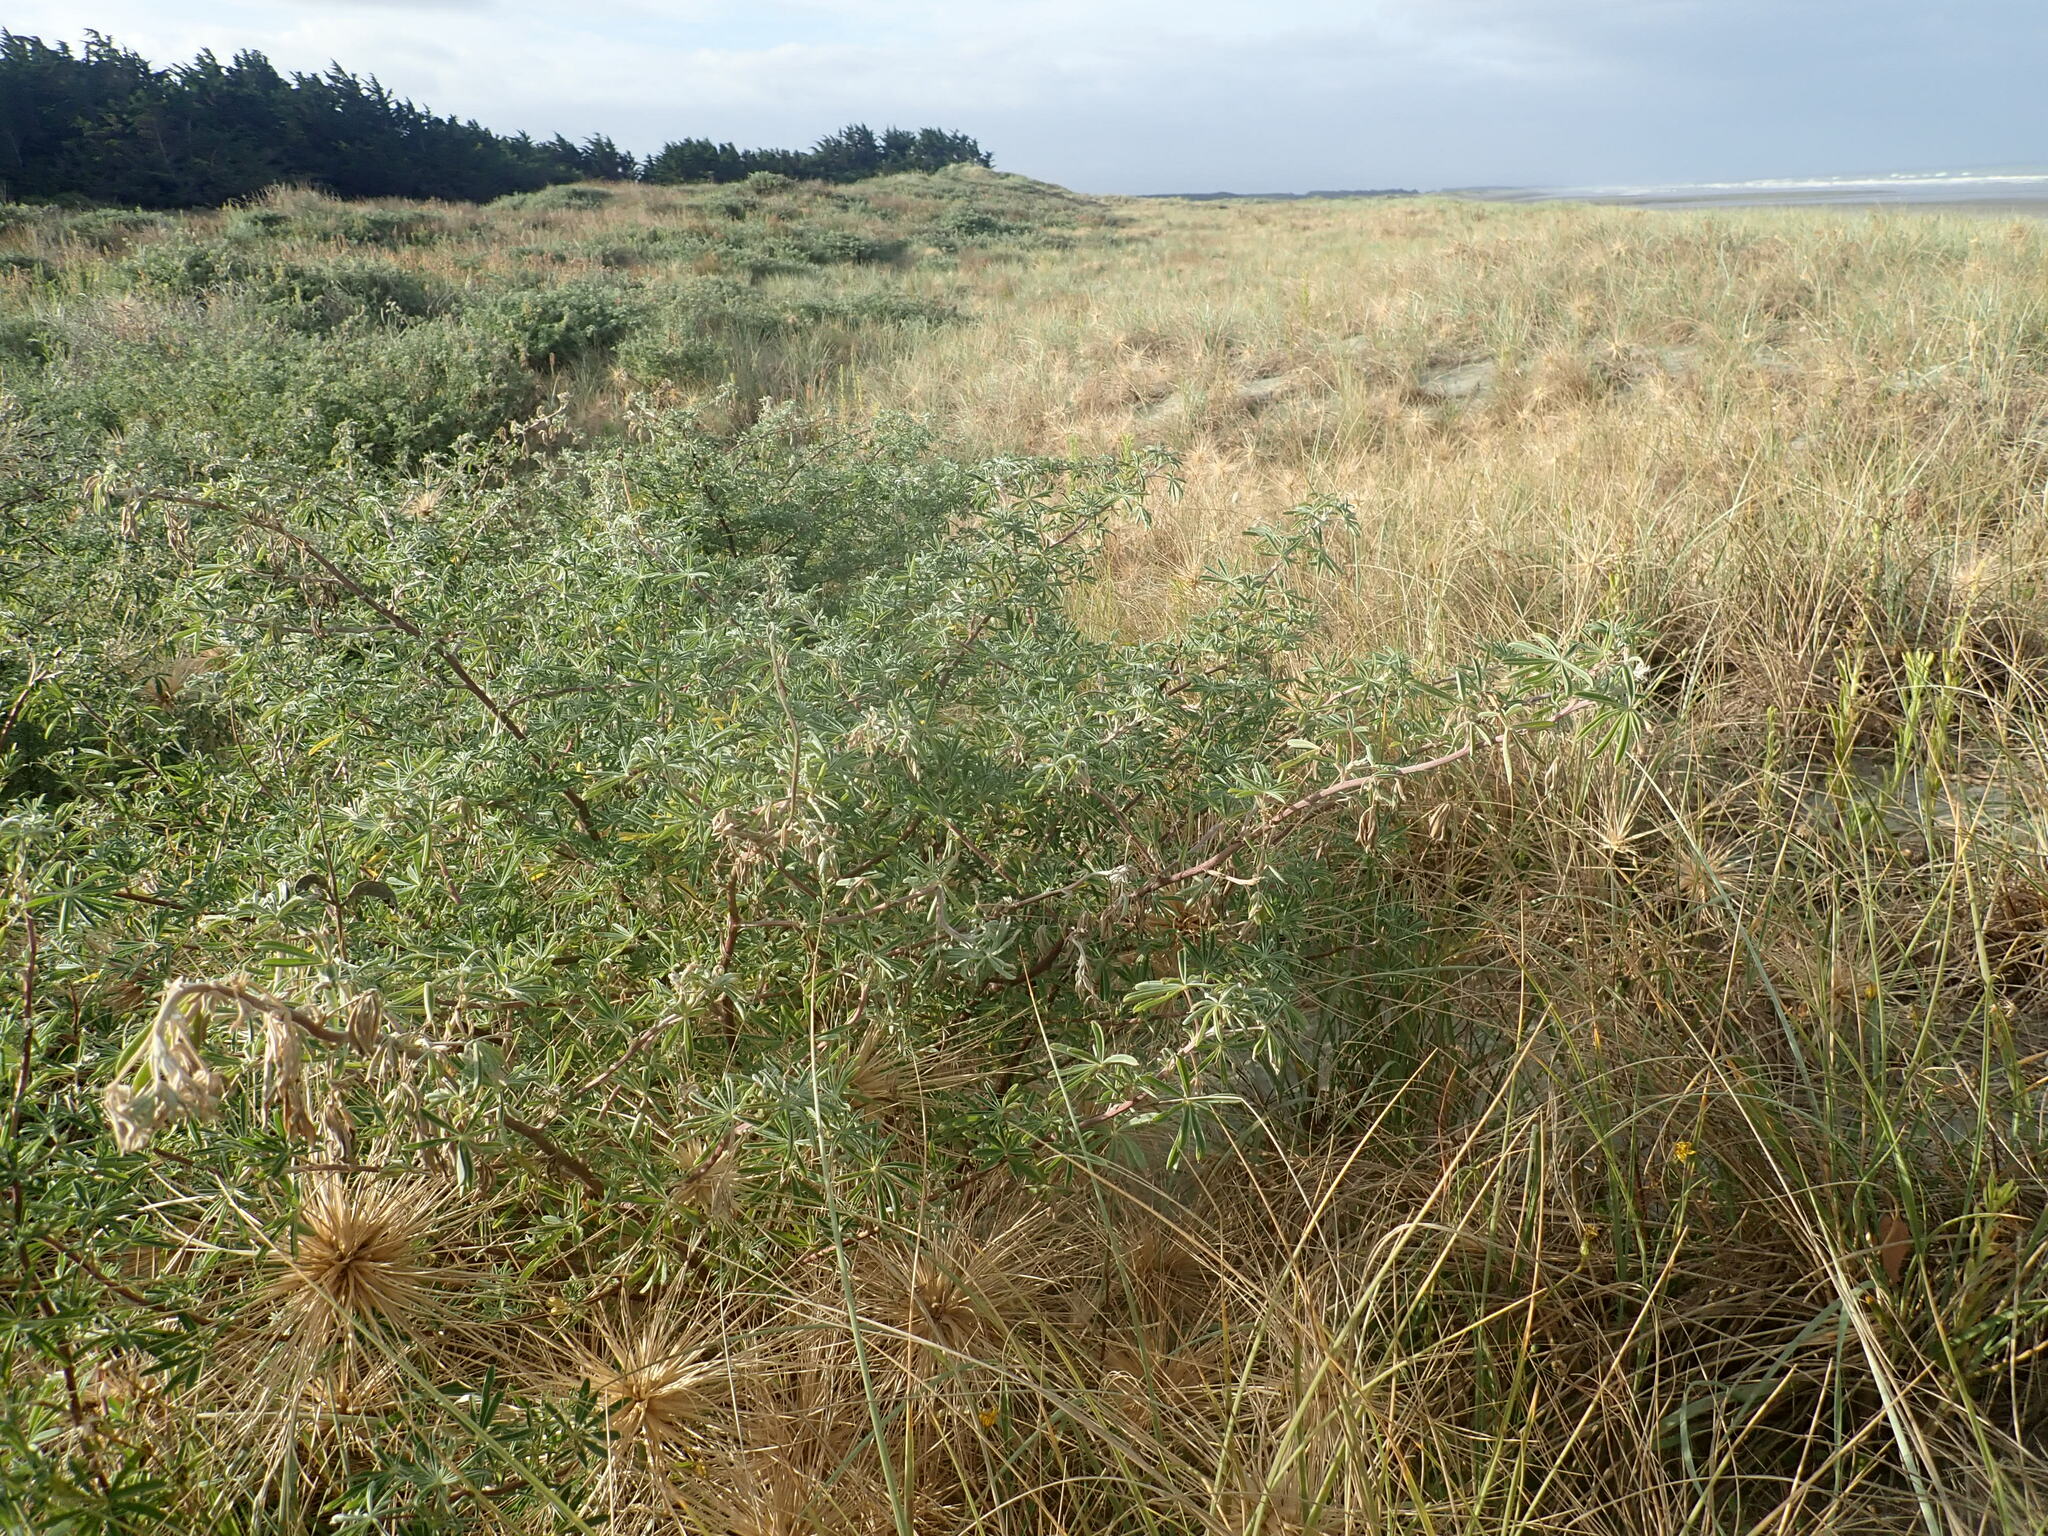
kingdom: Plantae
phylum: Tracheophyta
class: Magnoliopsida
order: Fabales
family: Fabaceae
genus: Lupinus
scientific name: Lupinus arboreus
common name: Yellow bush lupine
